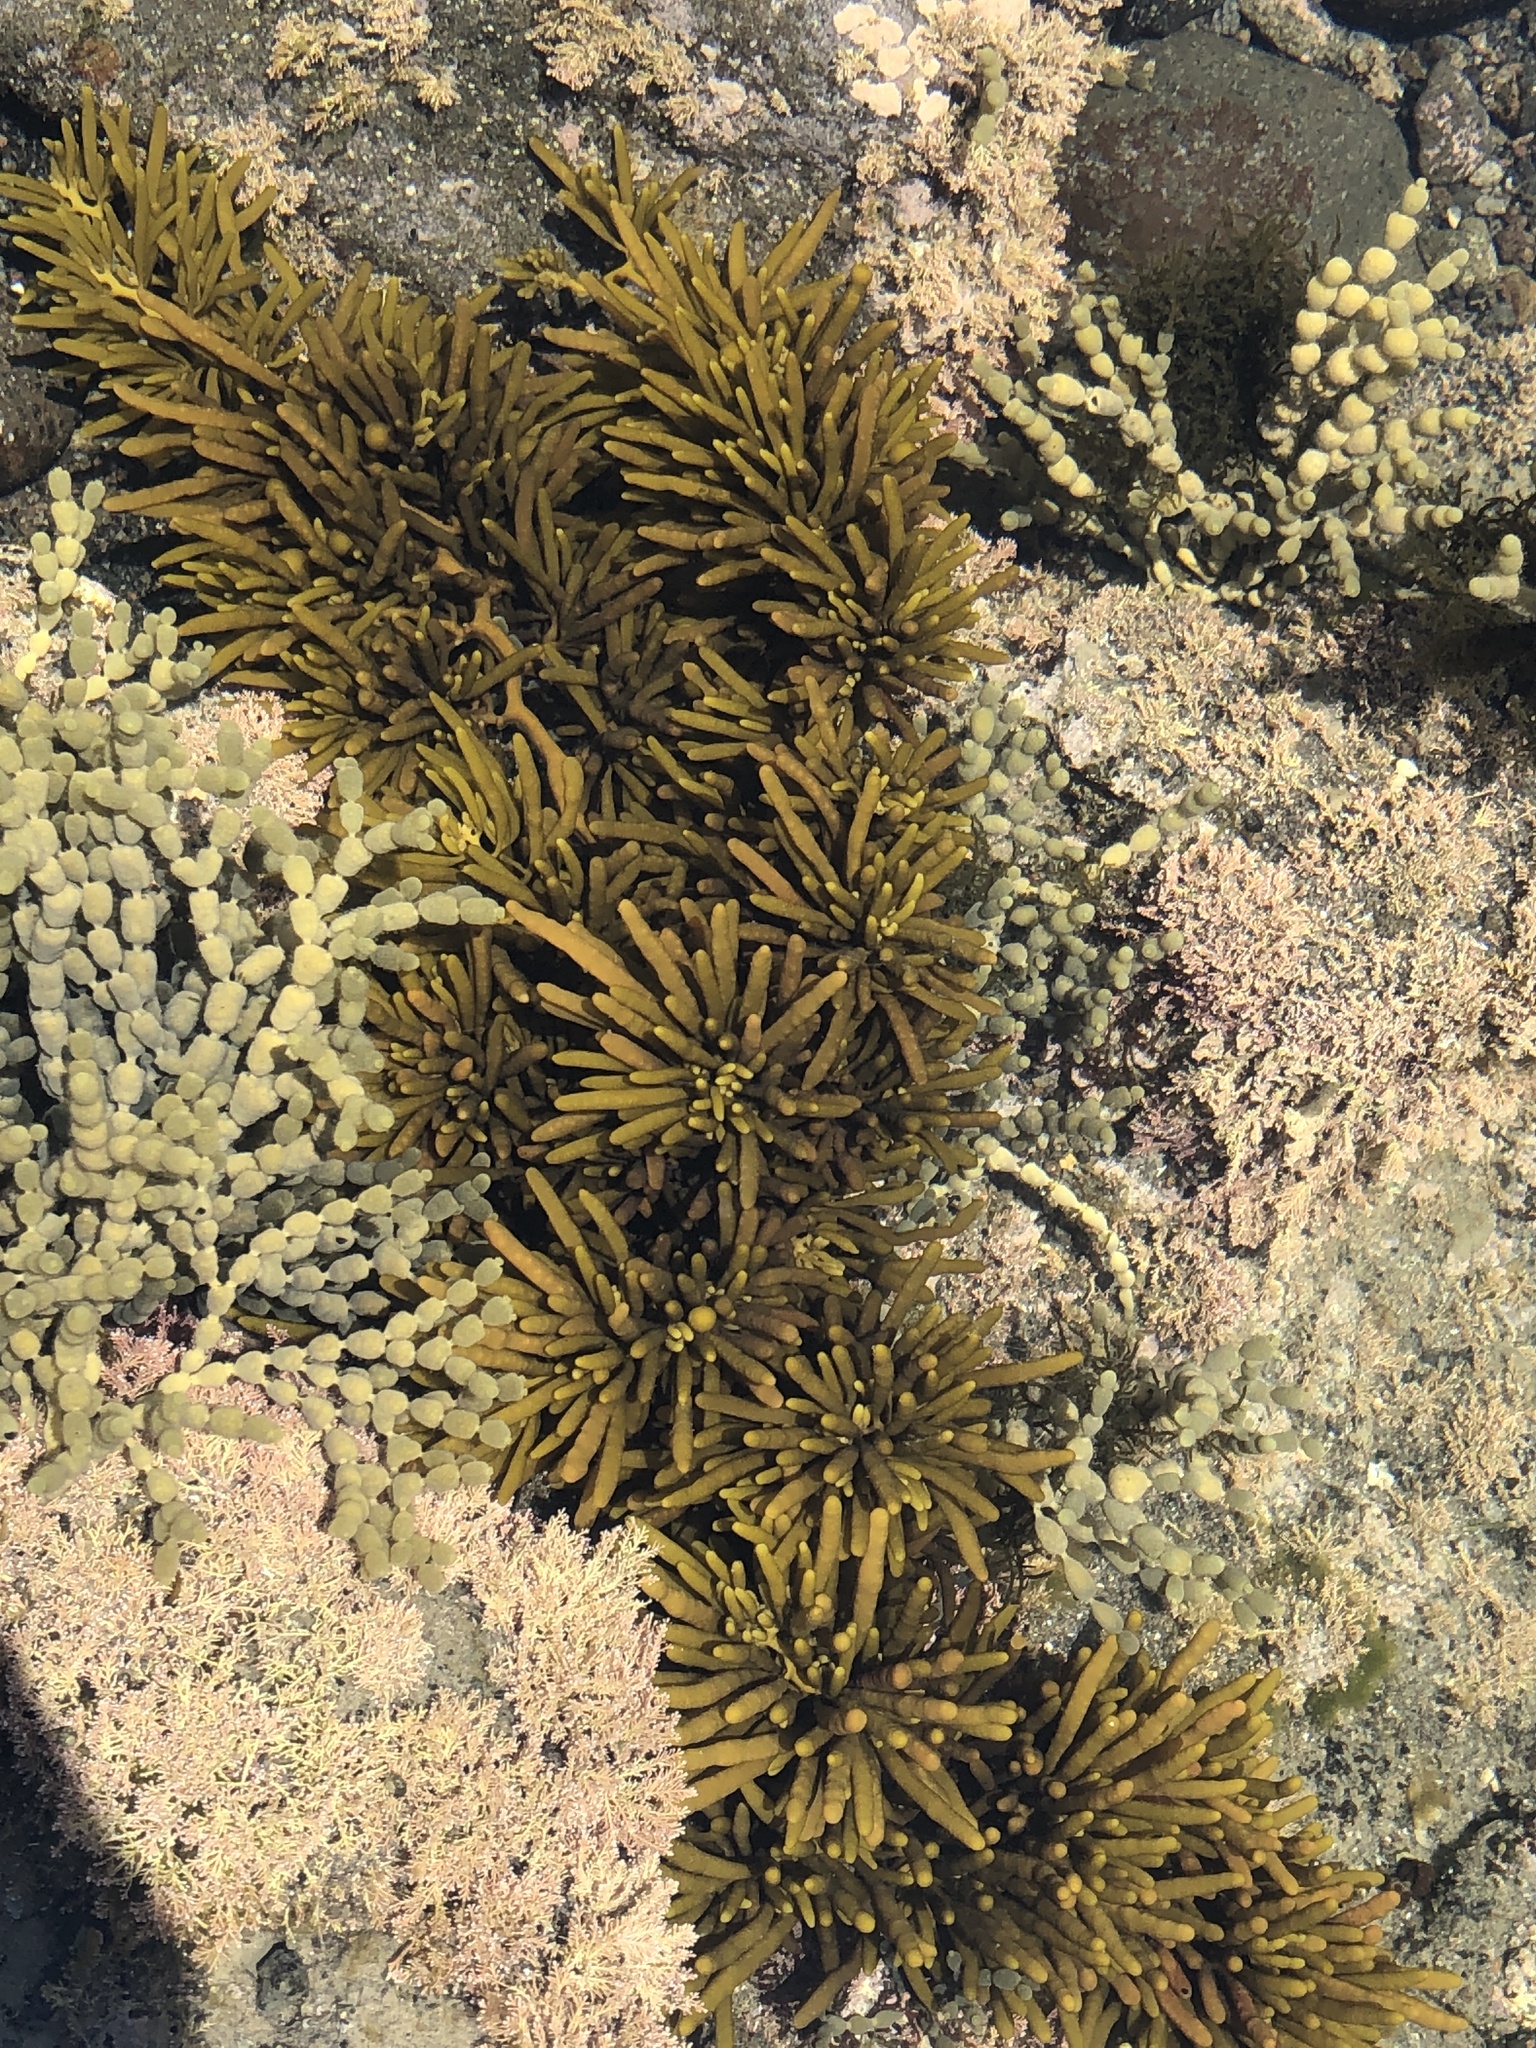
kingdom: Chromista
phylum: Ochrophyta
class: Phaeophyceae
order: Fucales
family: Sargassaceae
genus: Cystophora
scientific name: Cystophora torulosa
